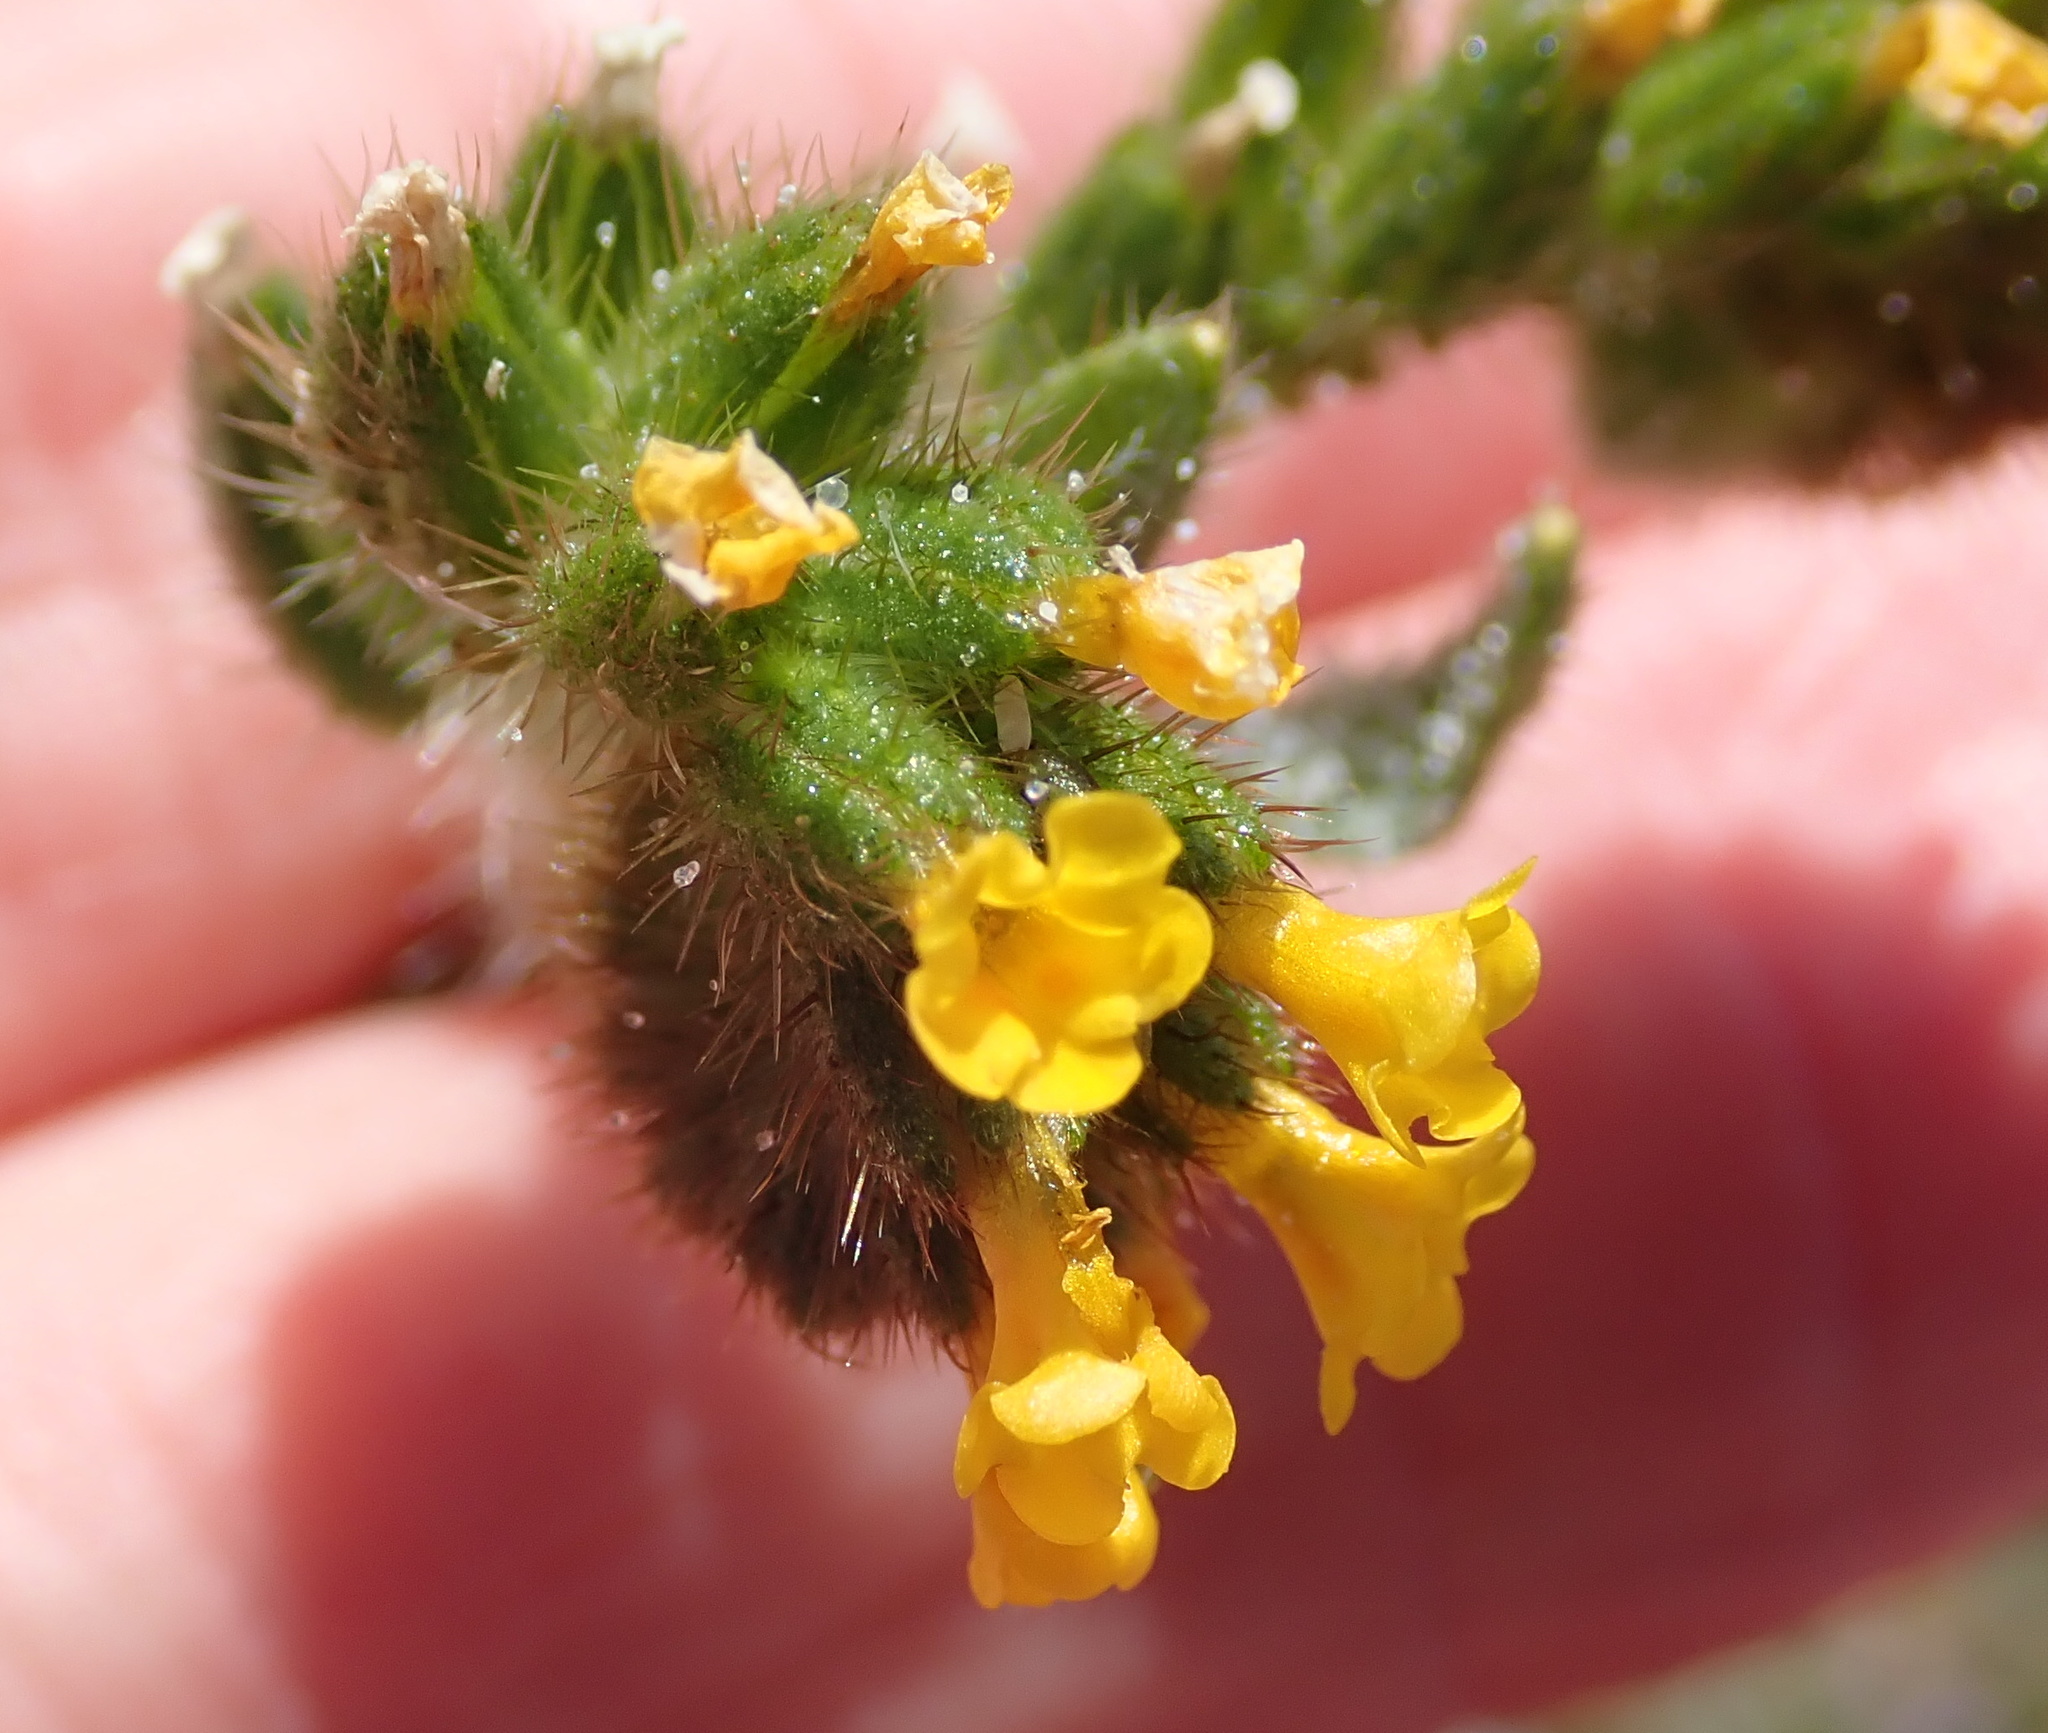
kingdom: Plantae
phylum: Tracheophyta
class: Magnoliopsida
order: Boraginales
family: Boraginaceae
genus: Amsinckia
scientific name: Amsinckia menziesii
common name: Menzies' fiddleneck
